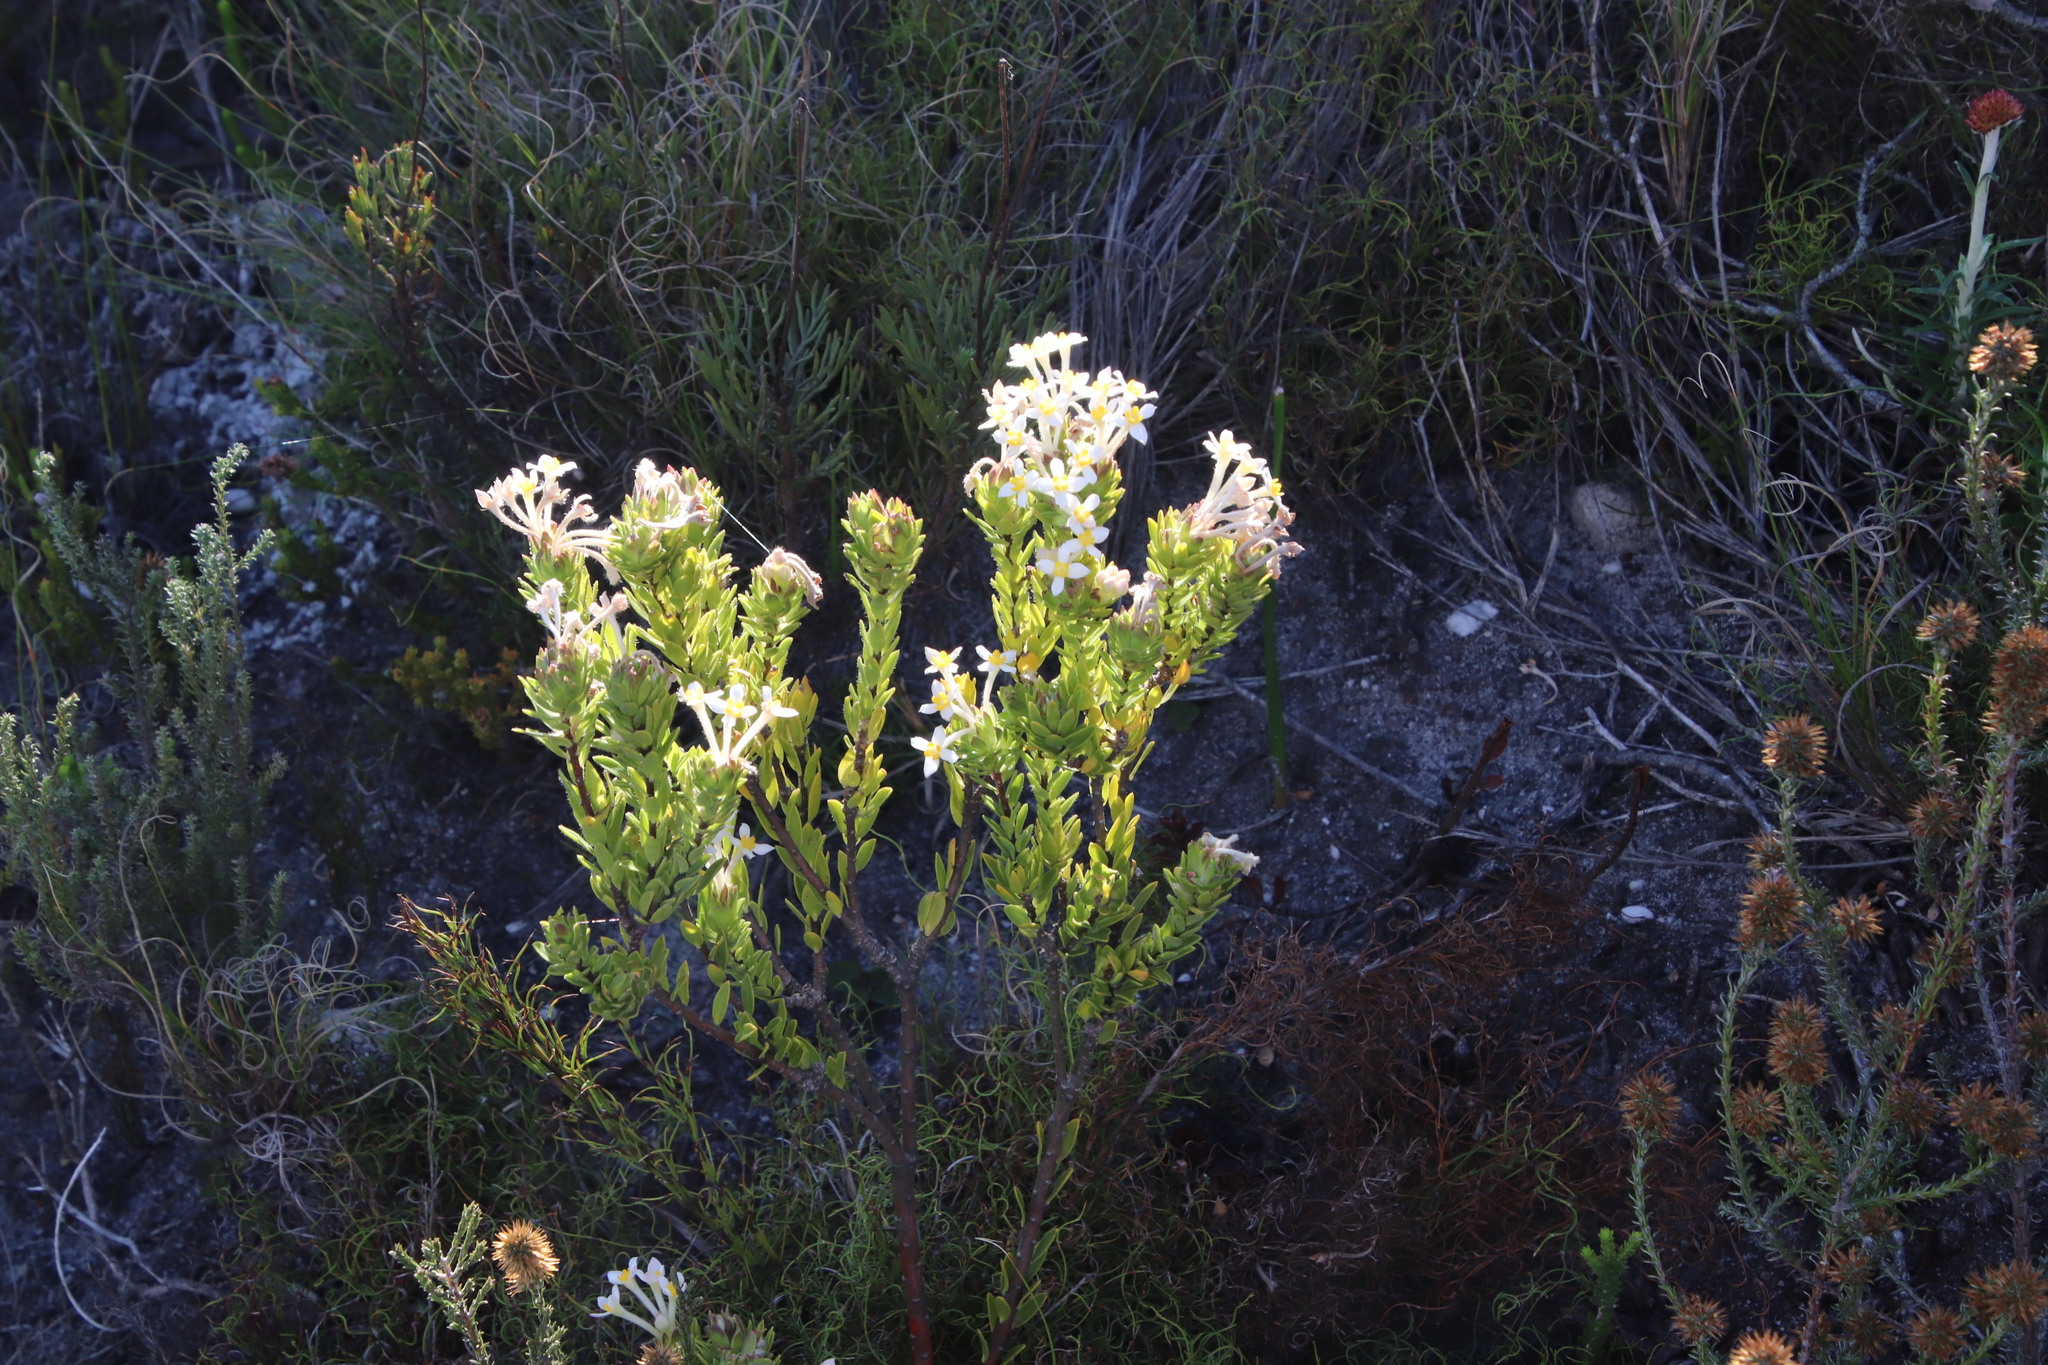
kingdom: Plantae
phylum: Tracheophyta
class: Magnoliopsida
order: Malvales
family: Thymelaeaceae
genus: Gnidia
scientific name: Gnidia tomentosa
